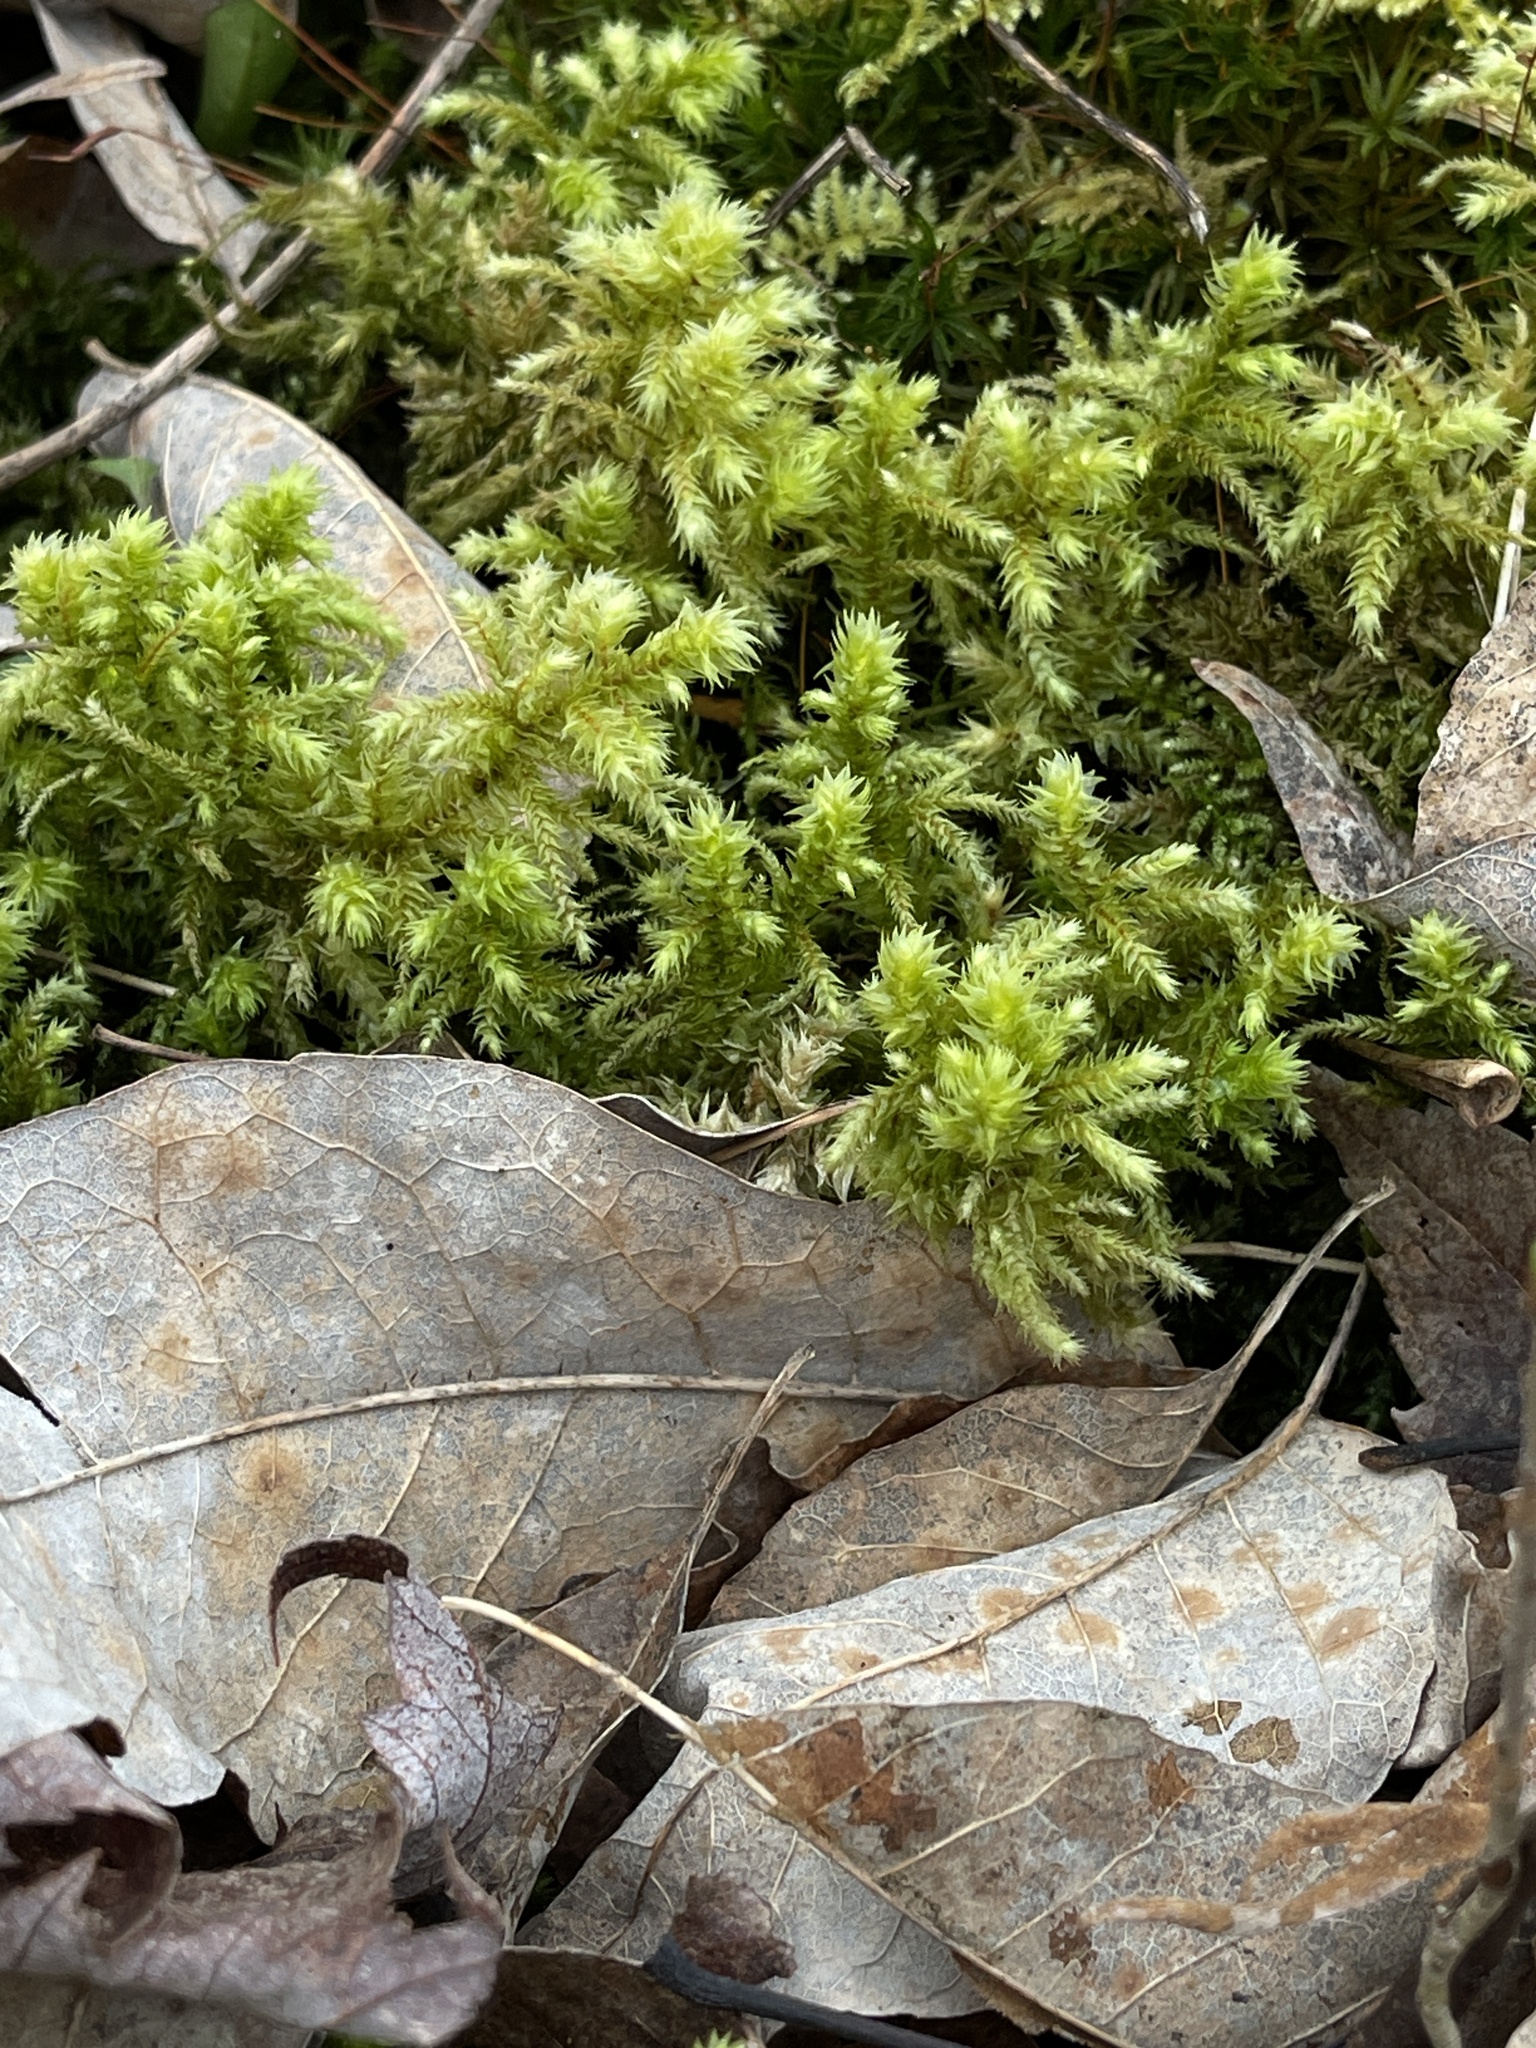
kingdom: Plantae
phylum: Bryophyta
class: Bryopsida
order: Hypnales
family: Hylocomiaceae
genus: Hylocomiadelphus
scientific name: Hylocomiadelphus triquetrus
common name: Rough goose neck moss
